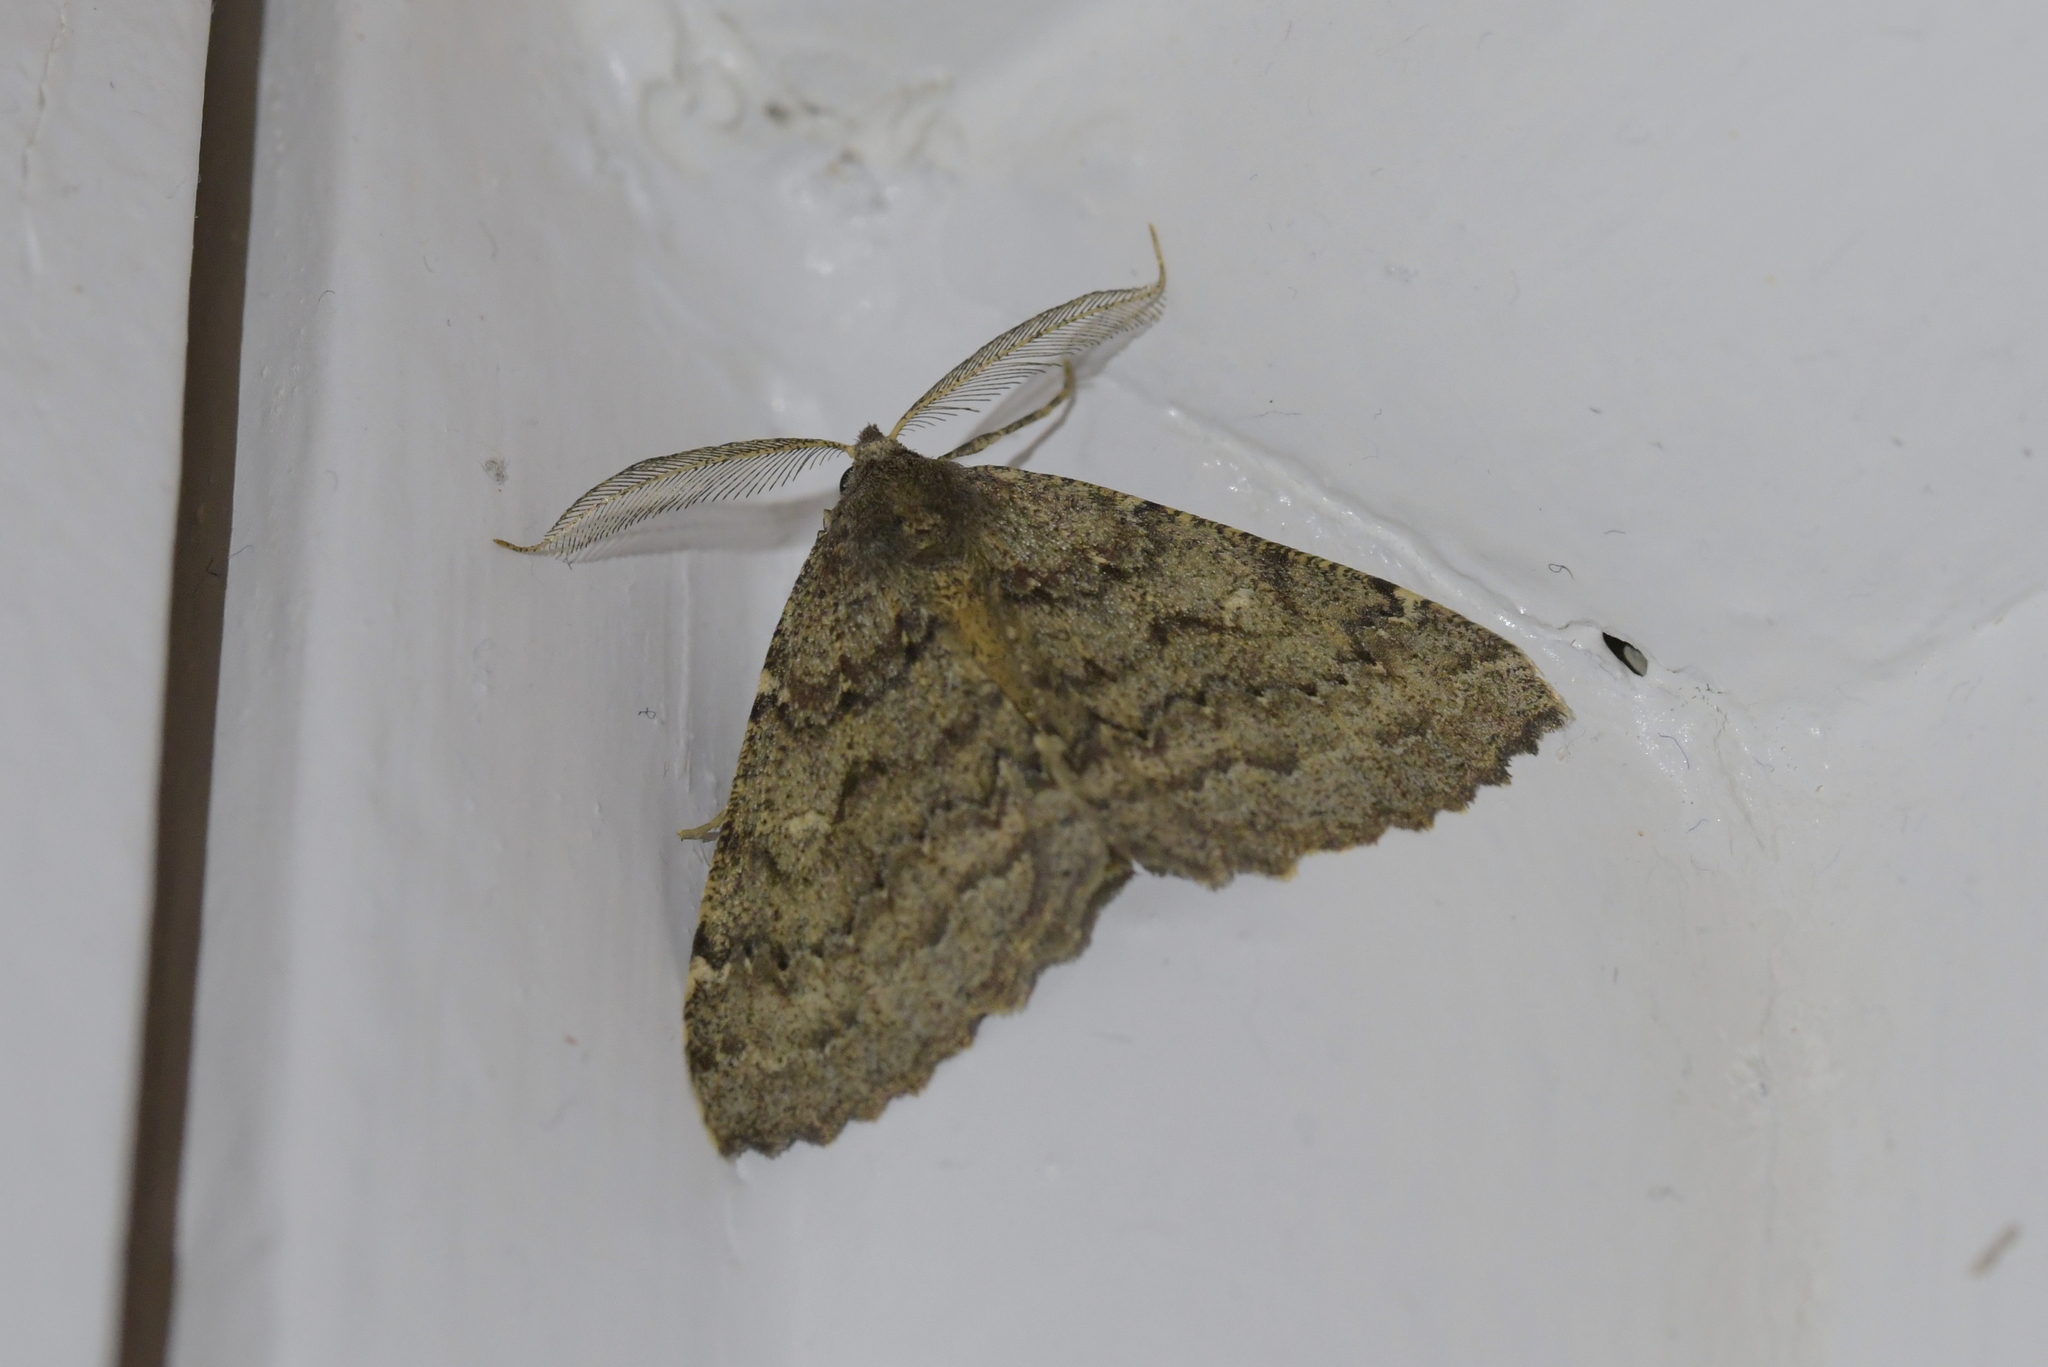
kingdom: Animalia
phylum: Arthropoda
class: Insecta
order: Lepidoptera
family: Geometridae
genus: Cleora
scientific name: Cleora scriptaria
